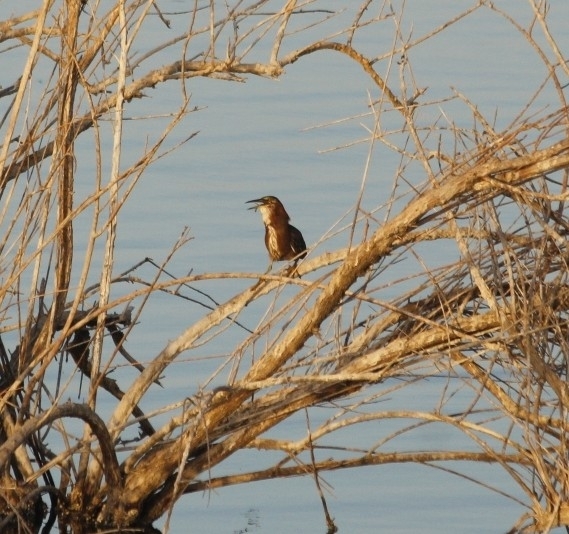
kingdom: Animalia
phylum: Chordata
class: Aves
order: Pelecaniformes
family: Ardeidae
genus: Butorides
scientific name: Butorides virescens
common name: Green heron
